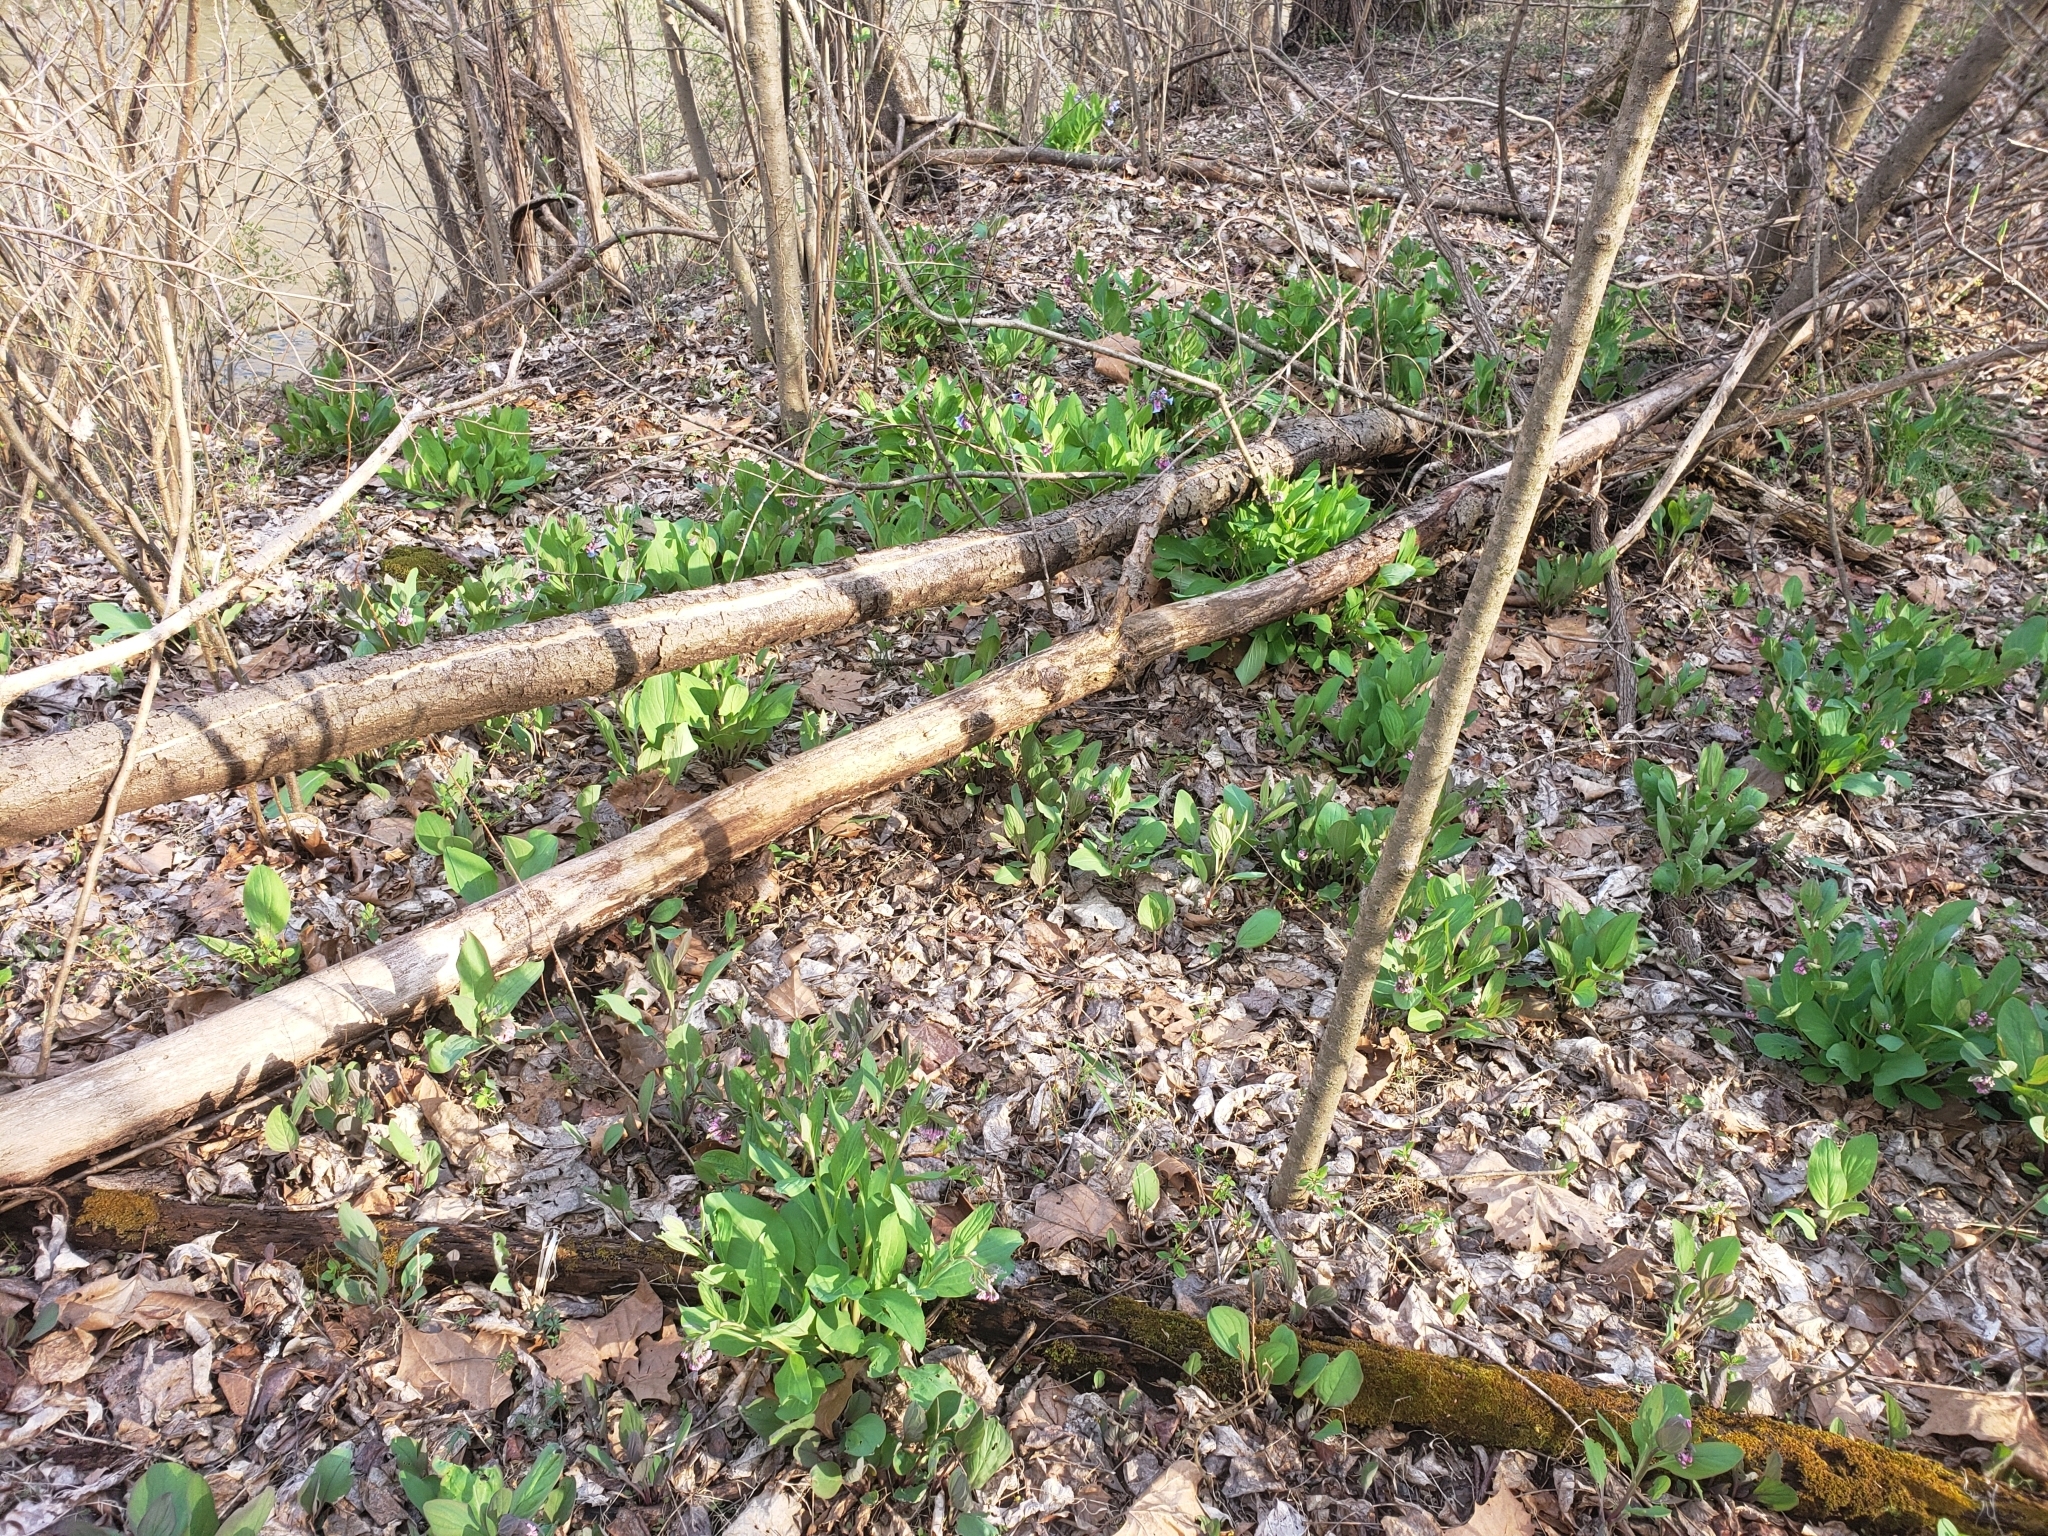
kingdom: Plantae
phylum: Tracheophyta
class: Magnoliopsida
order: Boraginales
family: Boraginaceae
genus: Mertensia
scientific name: Mertensia virginica
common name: Virginia bluebells
